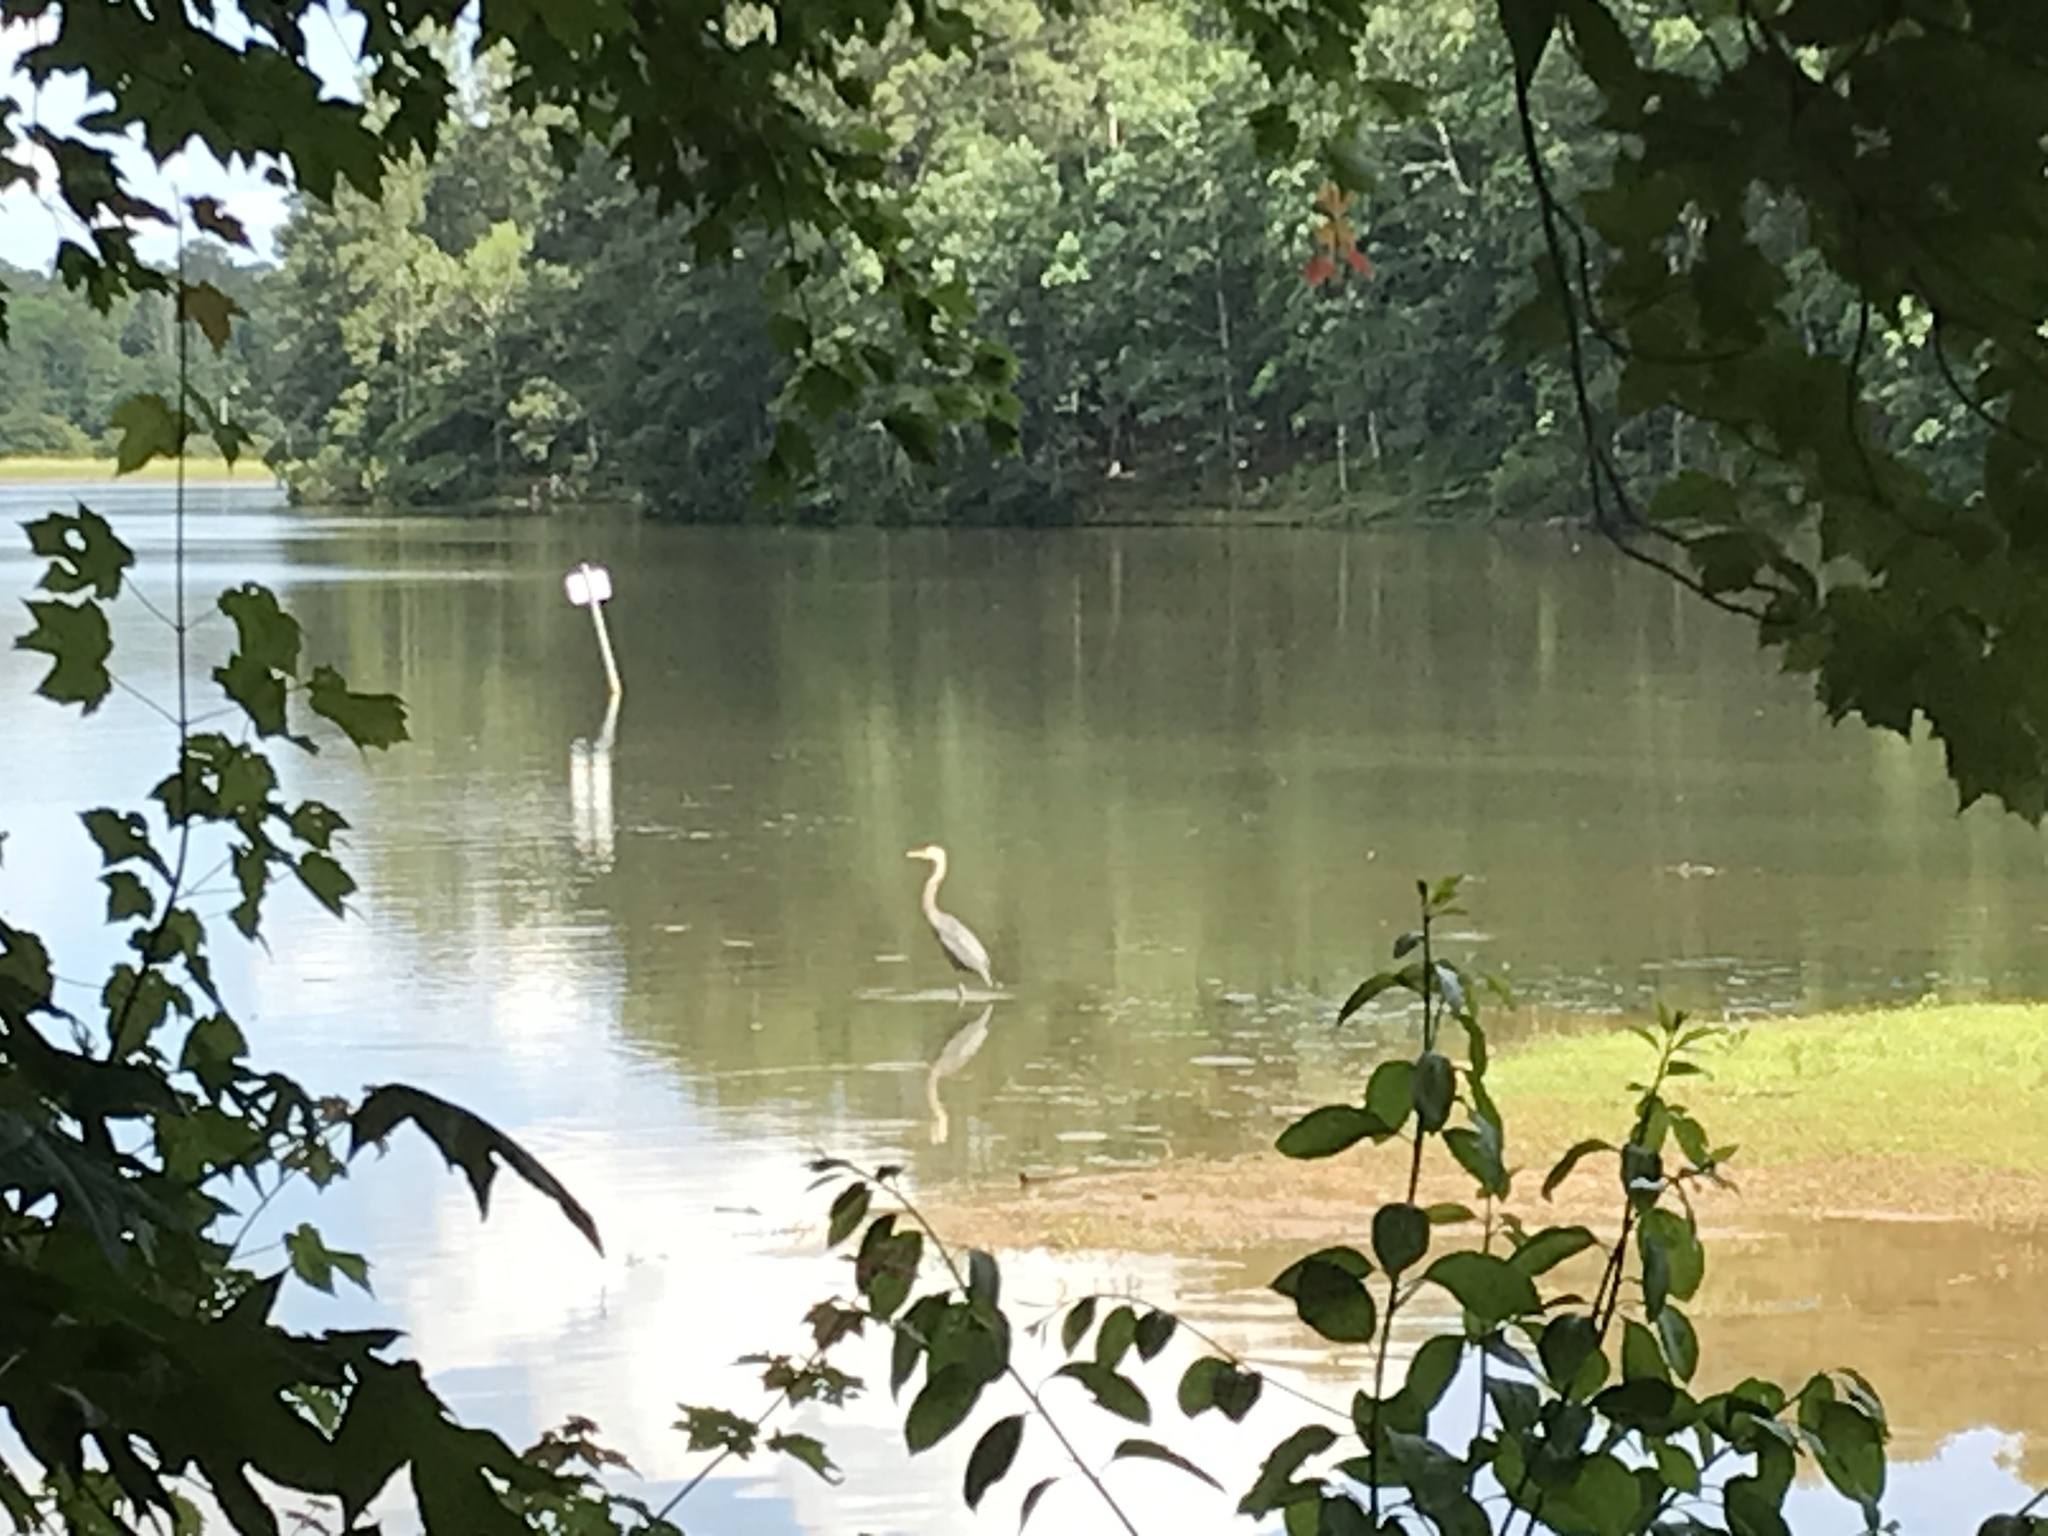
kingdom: Animalia
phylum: Chordata
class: Aves
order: Pelecaniformes
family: Ardeidae
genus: Ardea
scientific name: Ardea herodias
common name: Great blue heron
